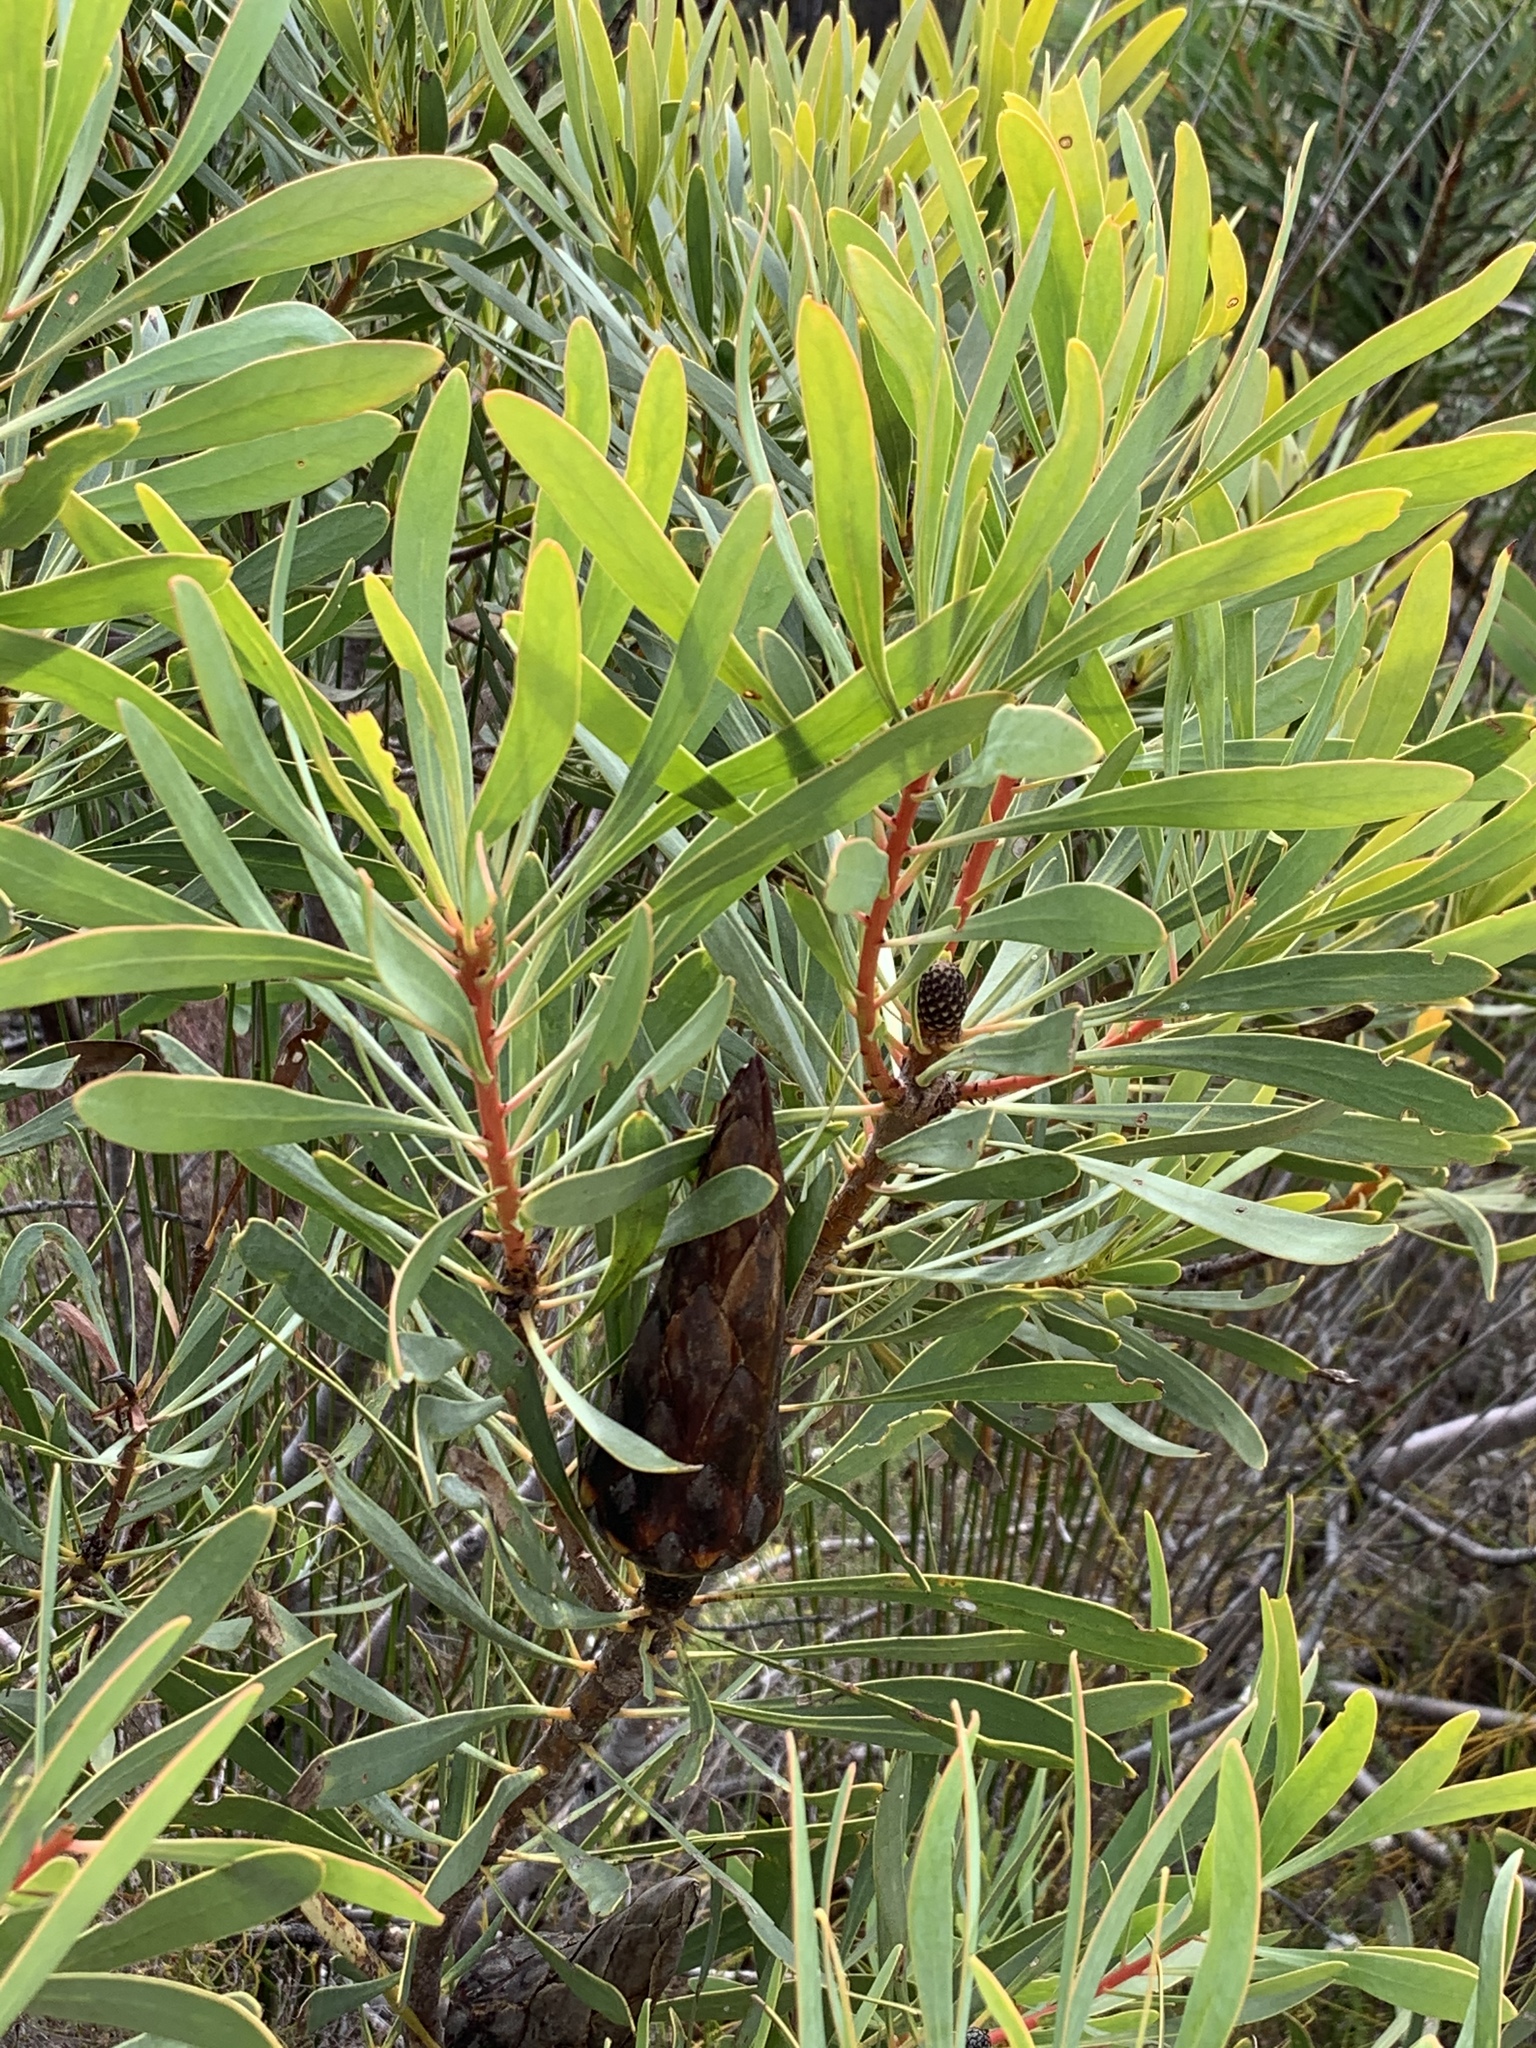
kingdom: Plantae
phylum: Tracheophyta
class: Magnoliopsida
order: Proteales
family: Proteaceae
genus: Protea
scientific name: Protea repens
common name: Sugarbush
